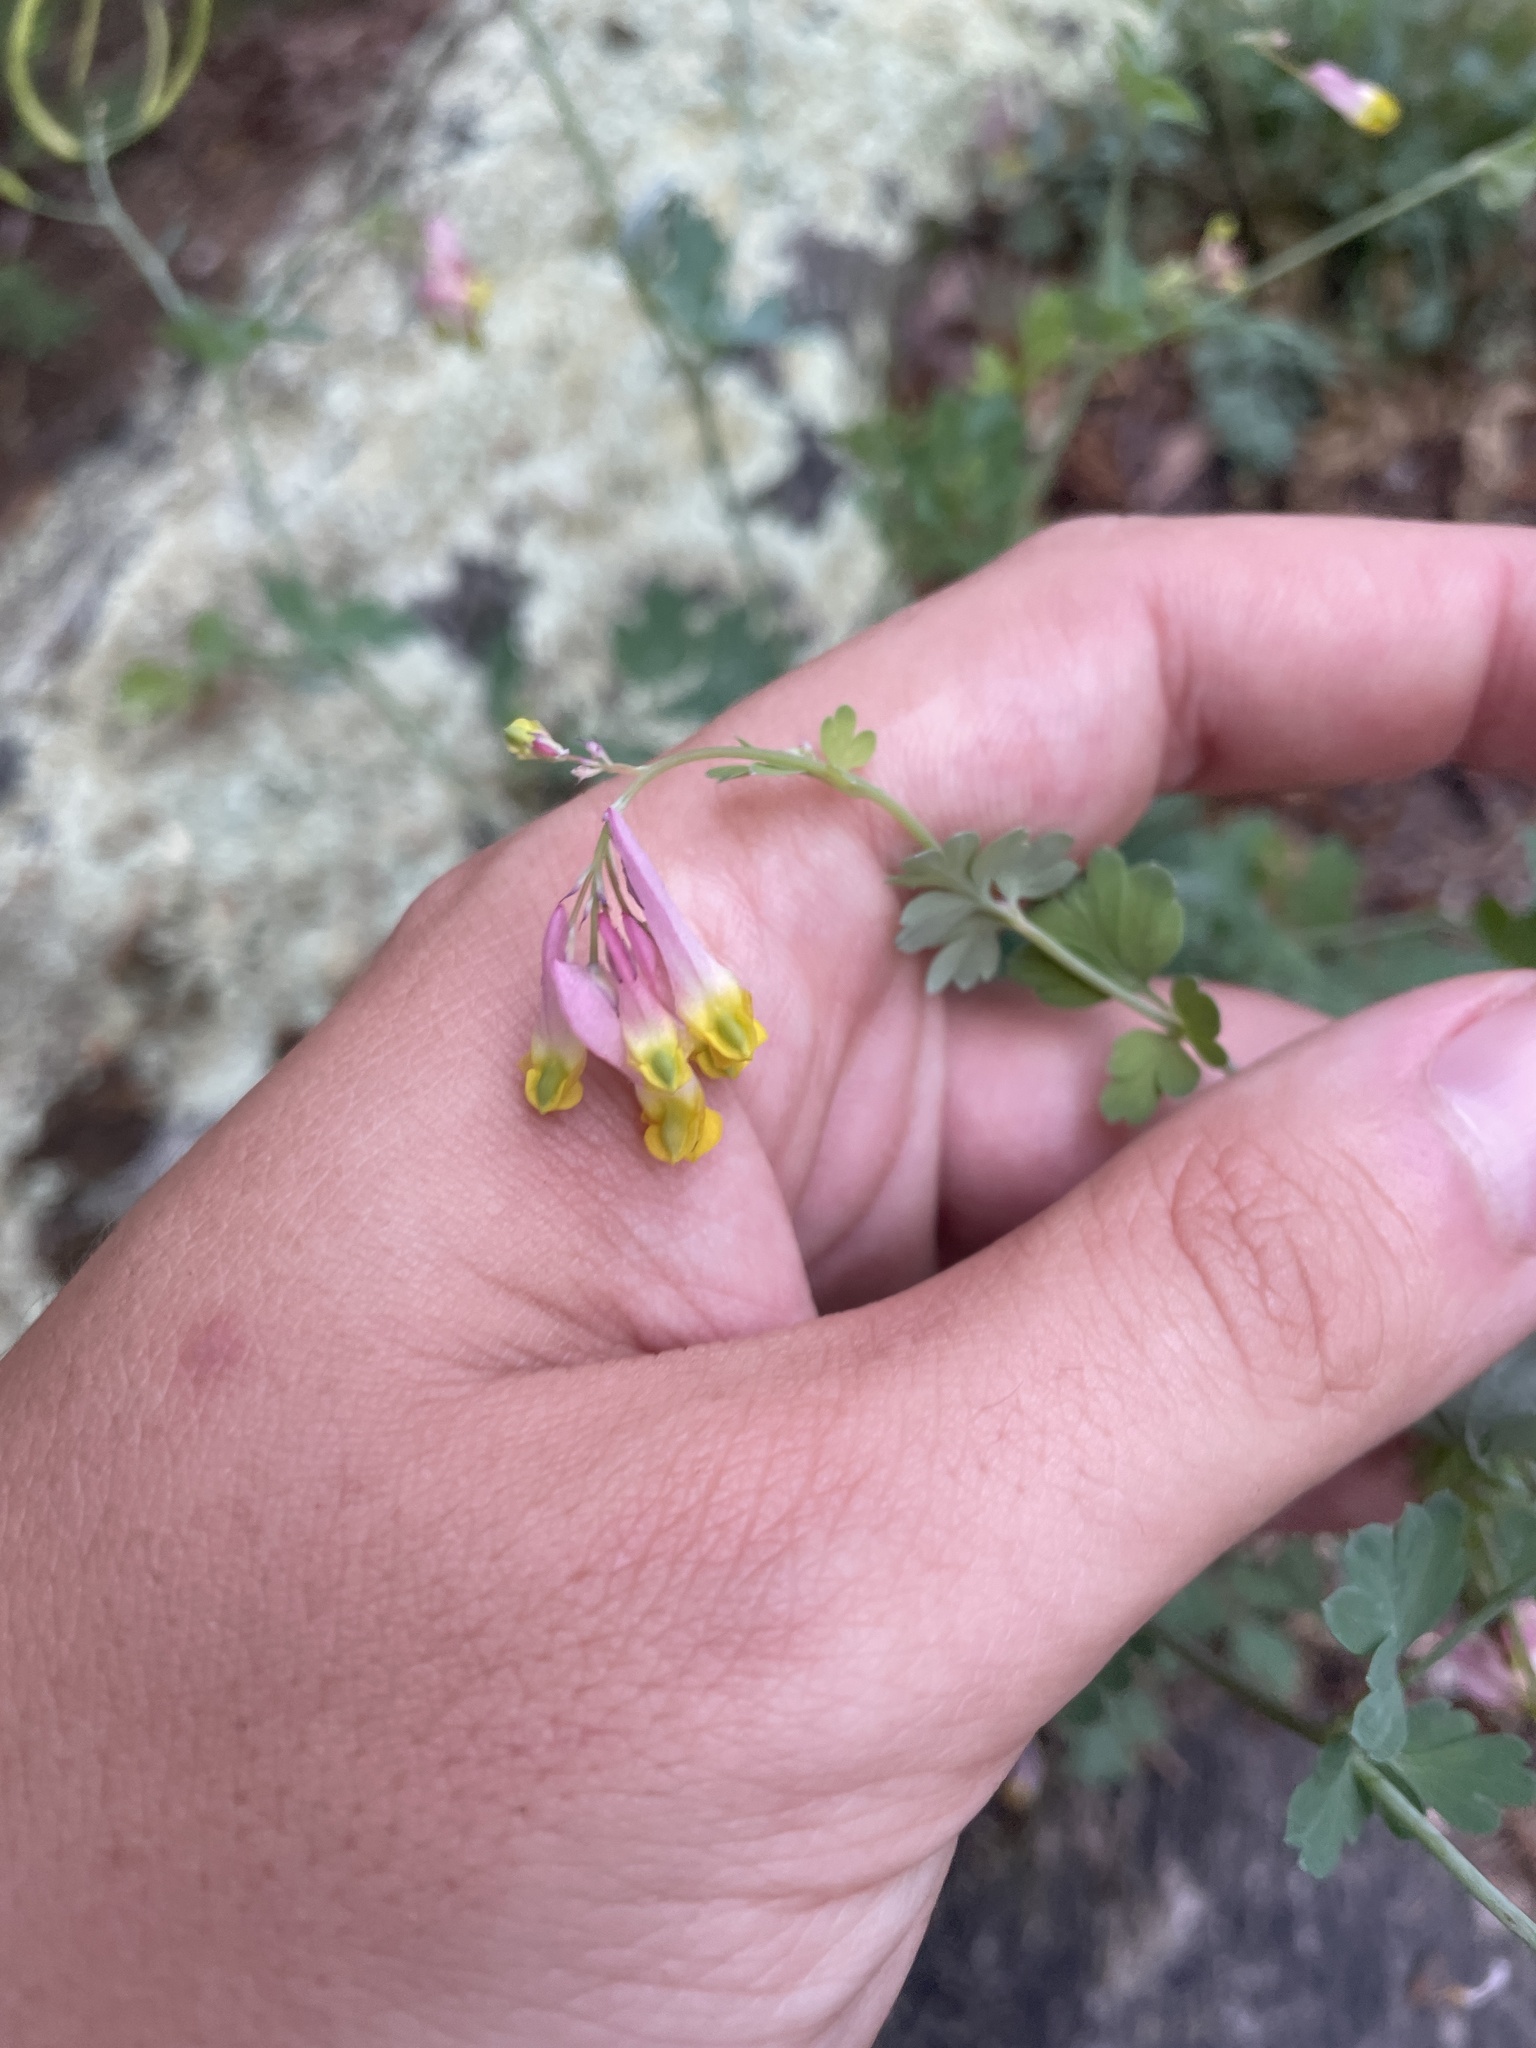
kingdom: Plantae
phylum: Tracheophyta
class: Magnoliopsida
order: Ranunculales
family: Papaveraceae
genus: Capnoides
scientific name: Capnoides sempervirens
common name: Rock harlequin
